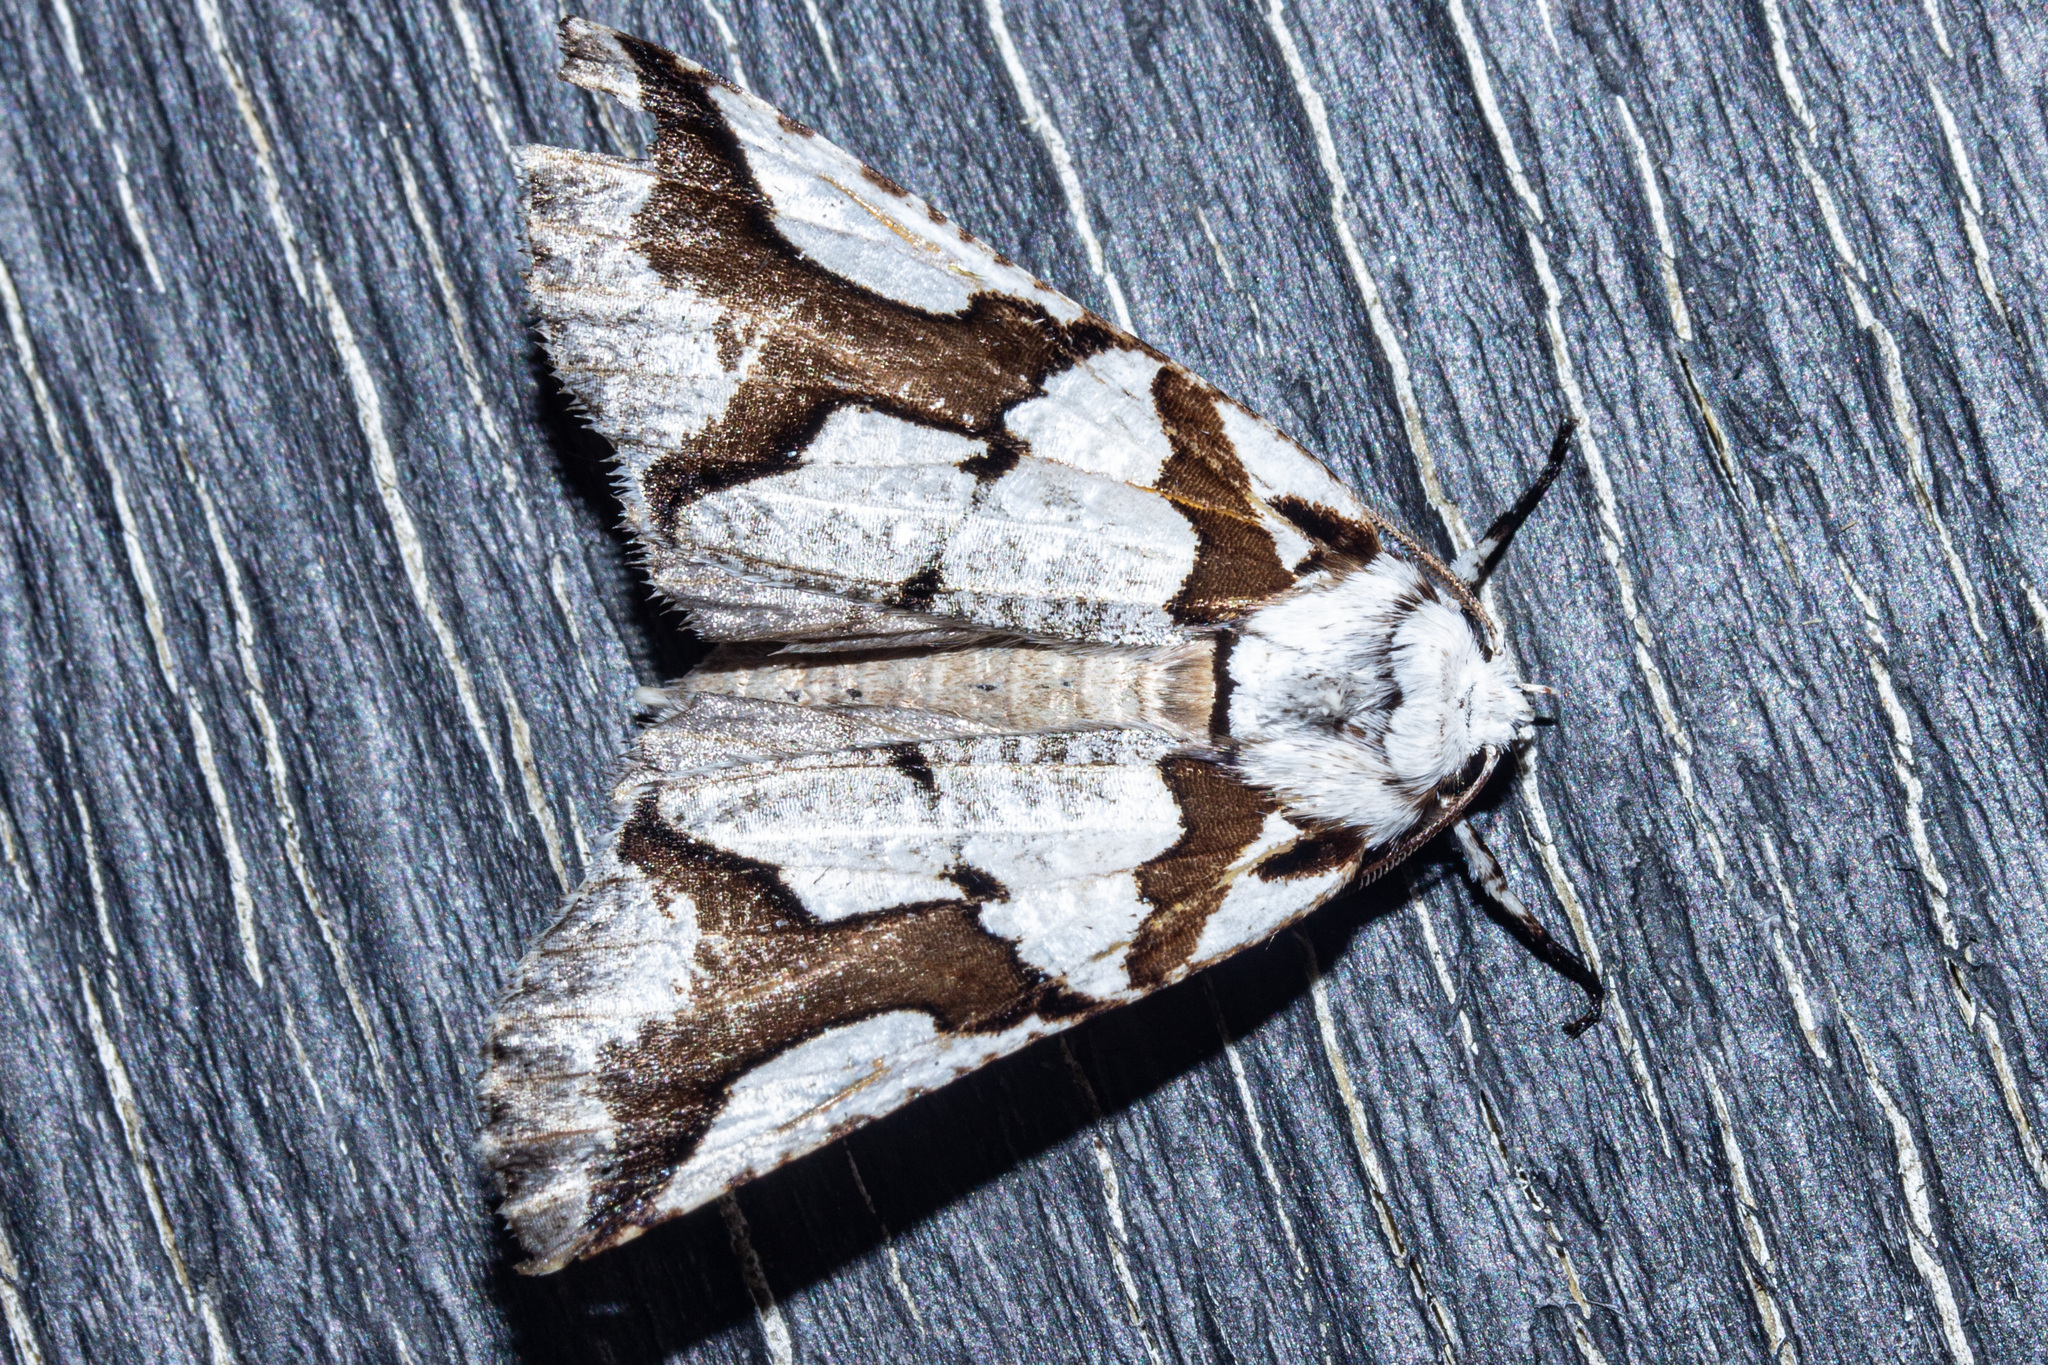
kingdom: Animalia
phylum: Arthropoda
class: Insecta
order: Lepidoptera
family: Geometridae
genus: Declana
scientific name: Declana
